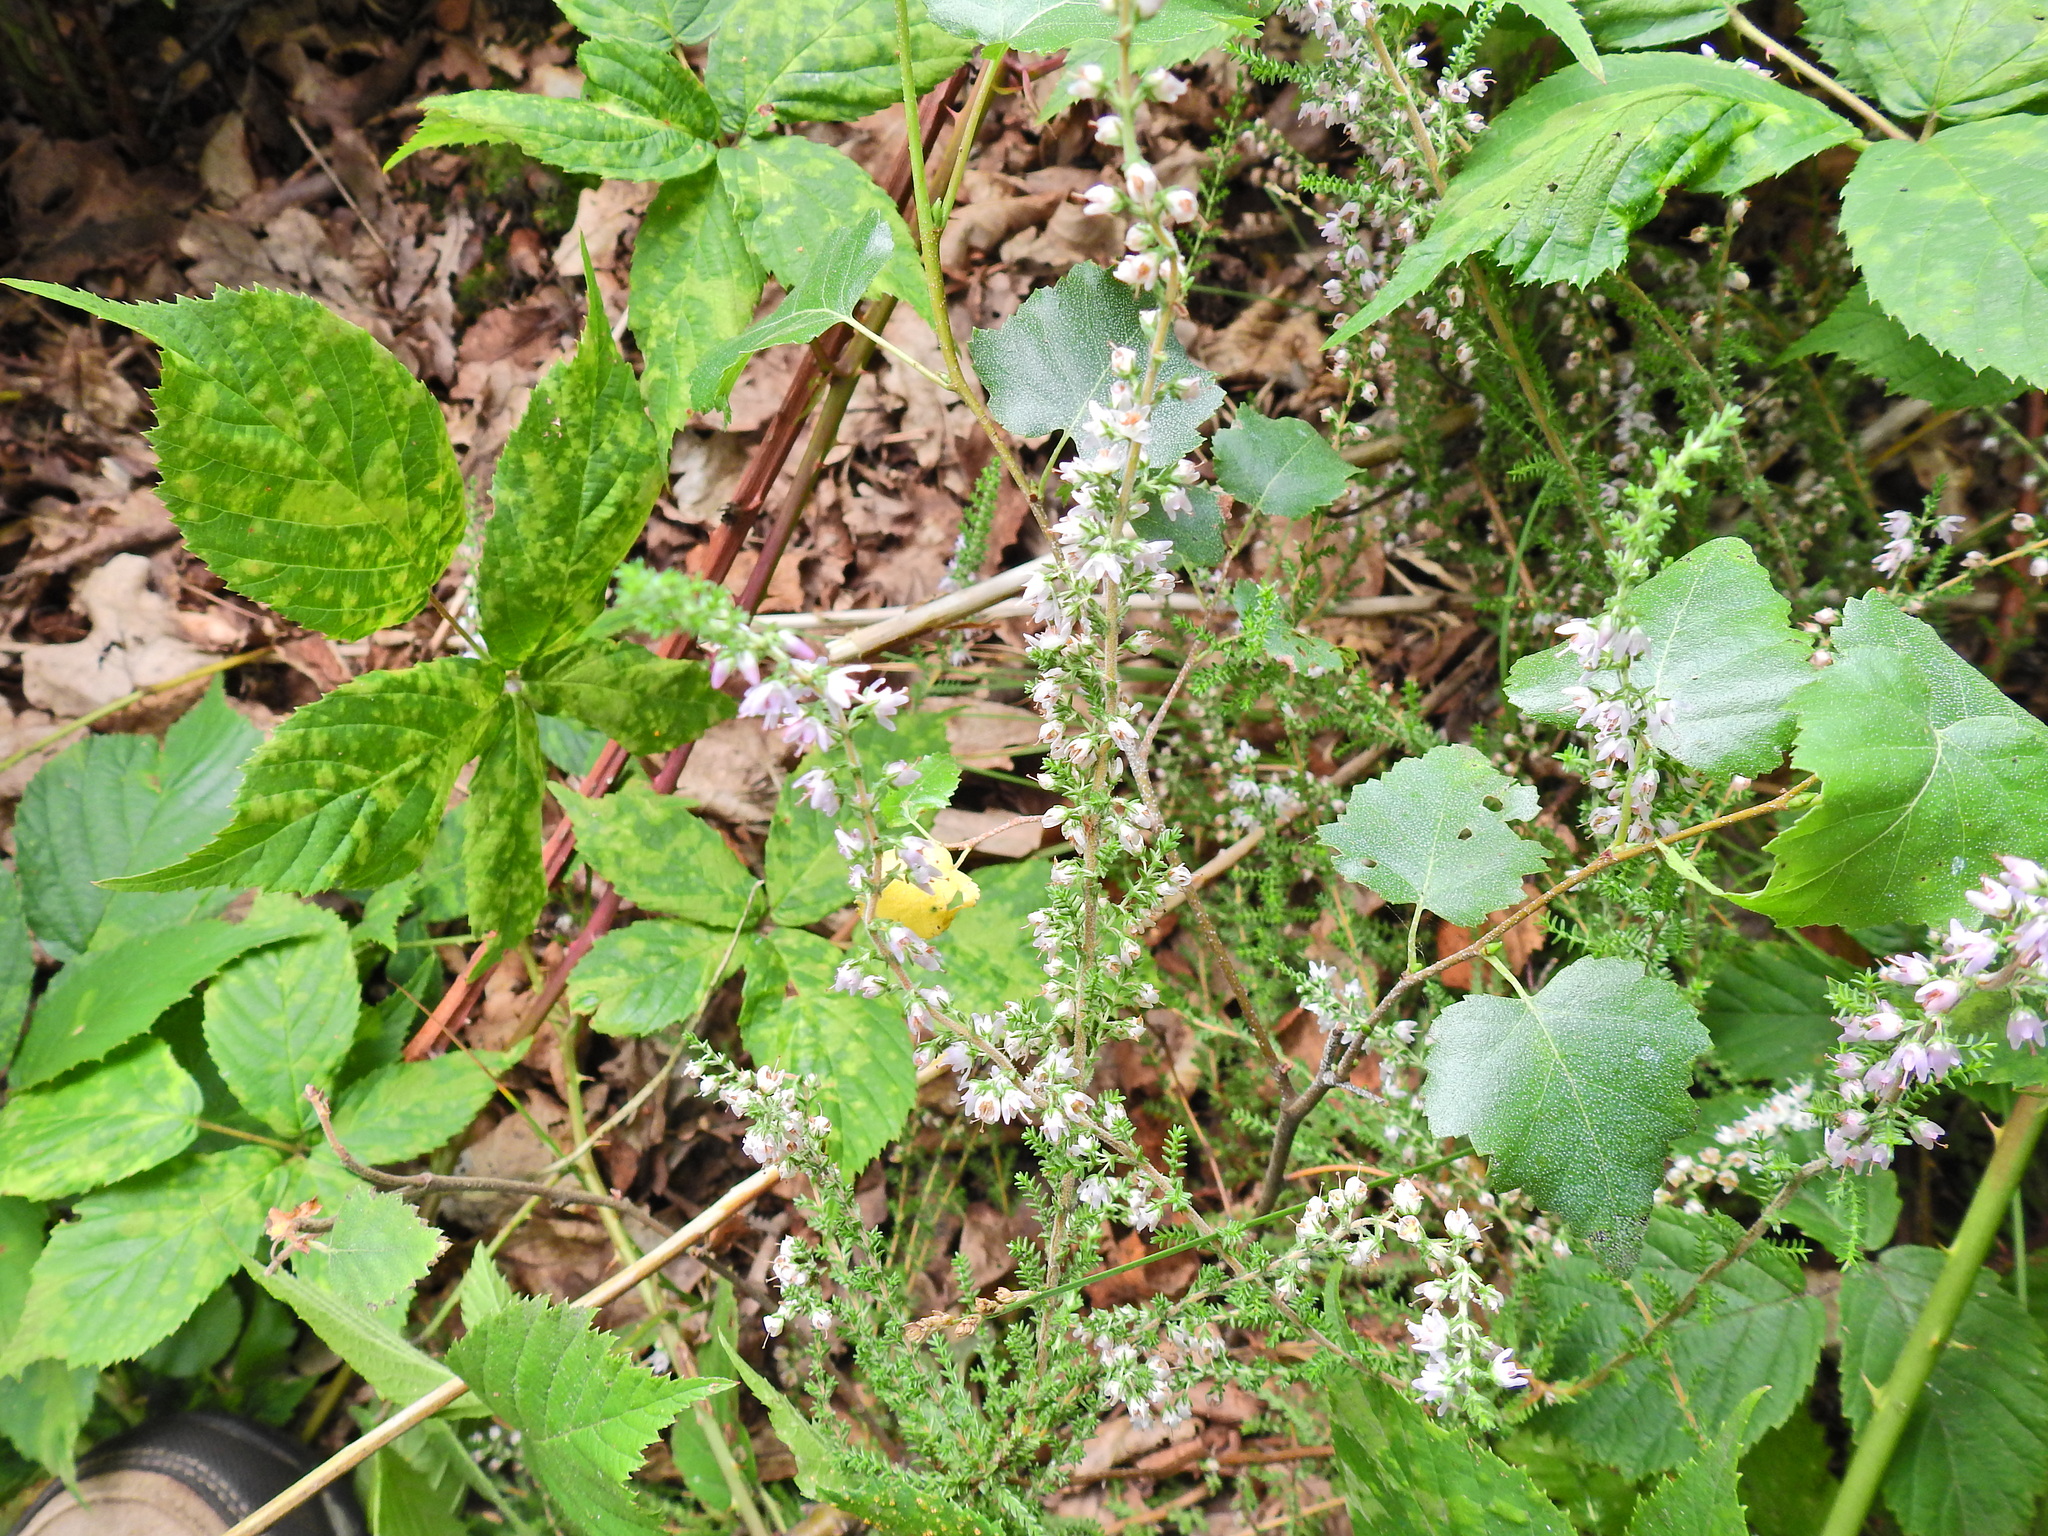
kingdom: Plantae
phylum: Tracheophyta
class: Magnoliopsida
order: Ericales
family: Ericaceae
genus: Calluna
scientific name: Calluna vulgaris
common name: Heather
